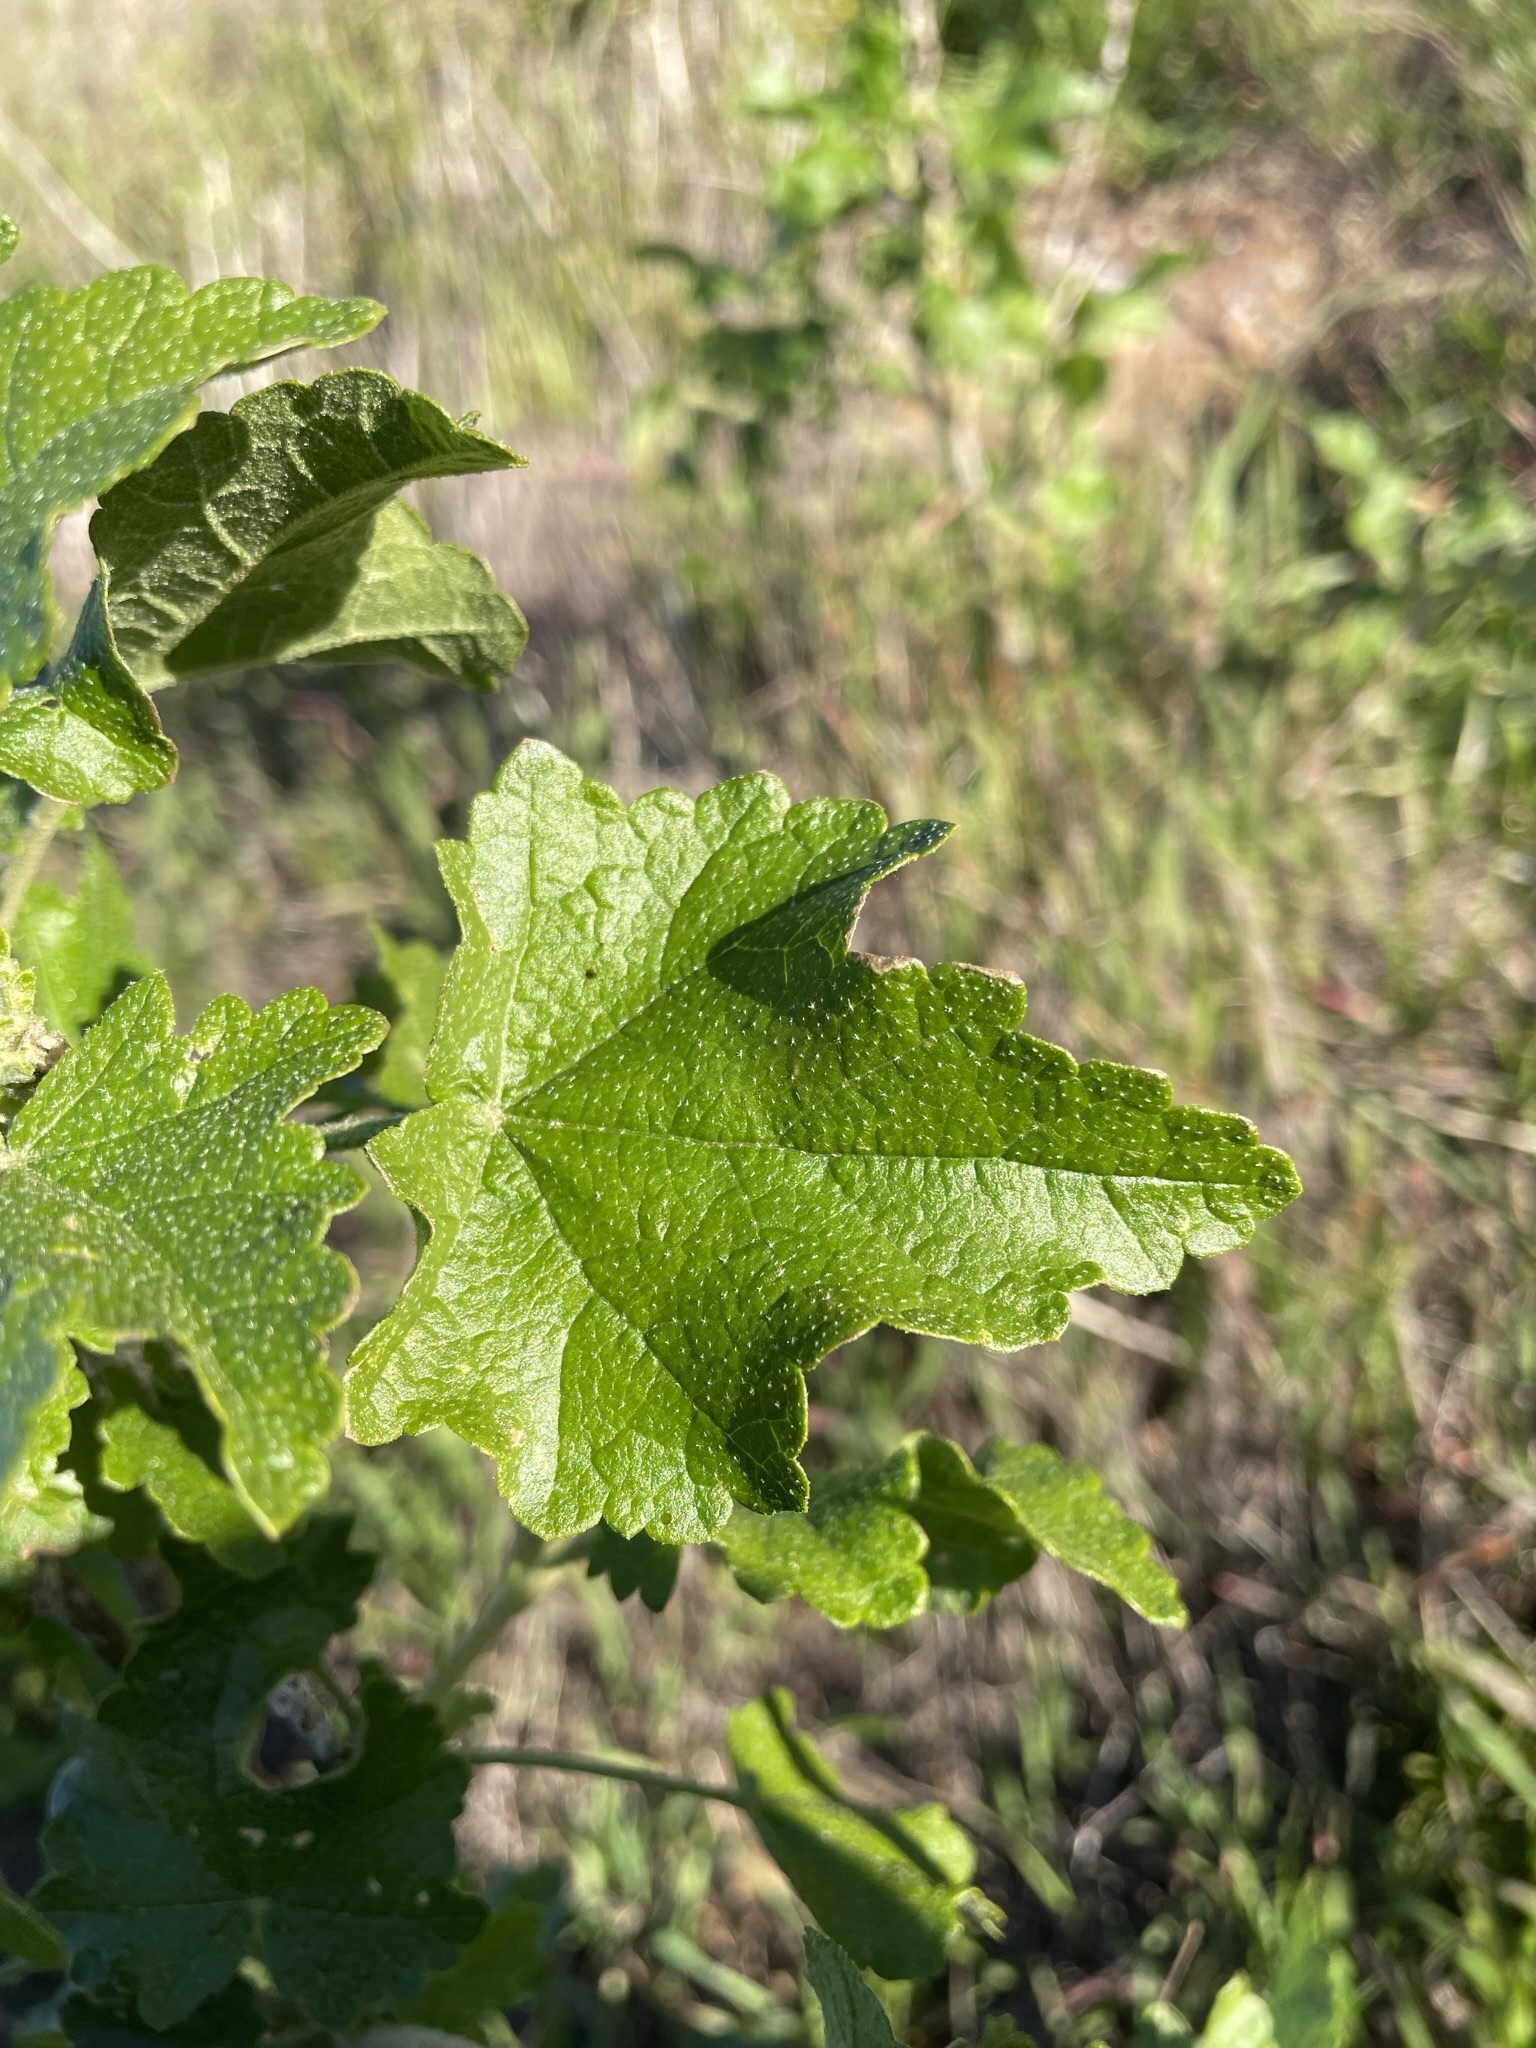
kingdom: Plantae
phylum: Tracheophyta
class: Magnoliopsida
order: Malvales
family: Malvaceae
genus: Malacothamnus
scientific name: Malacothamnus fasciculatus
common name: Sant cruz island bush-mallow
